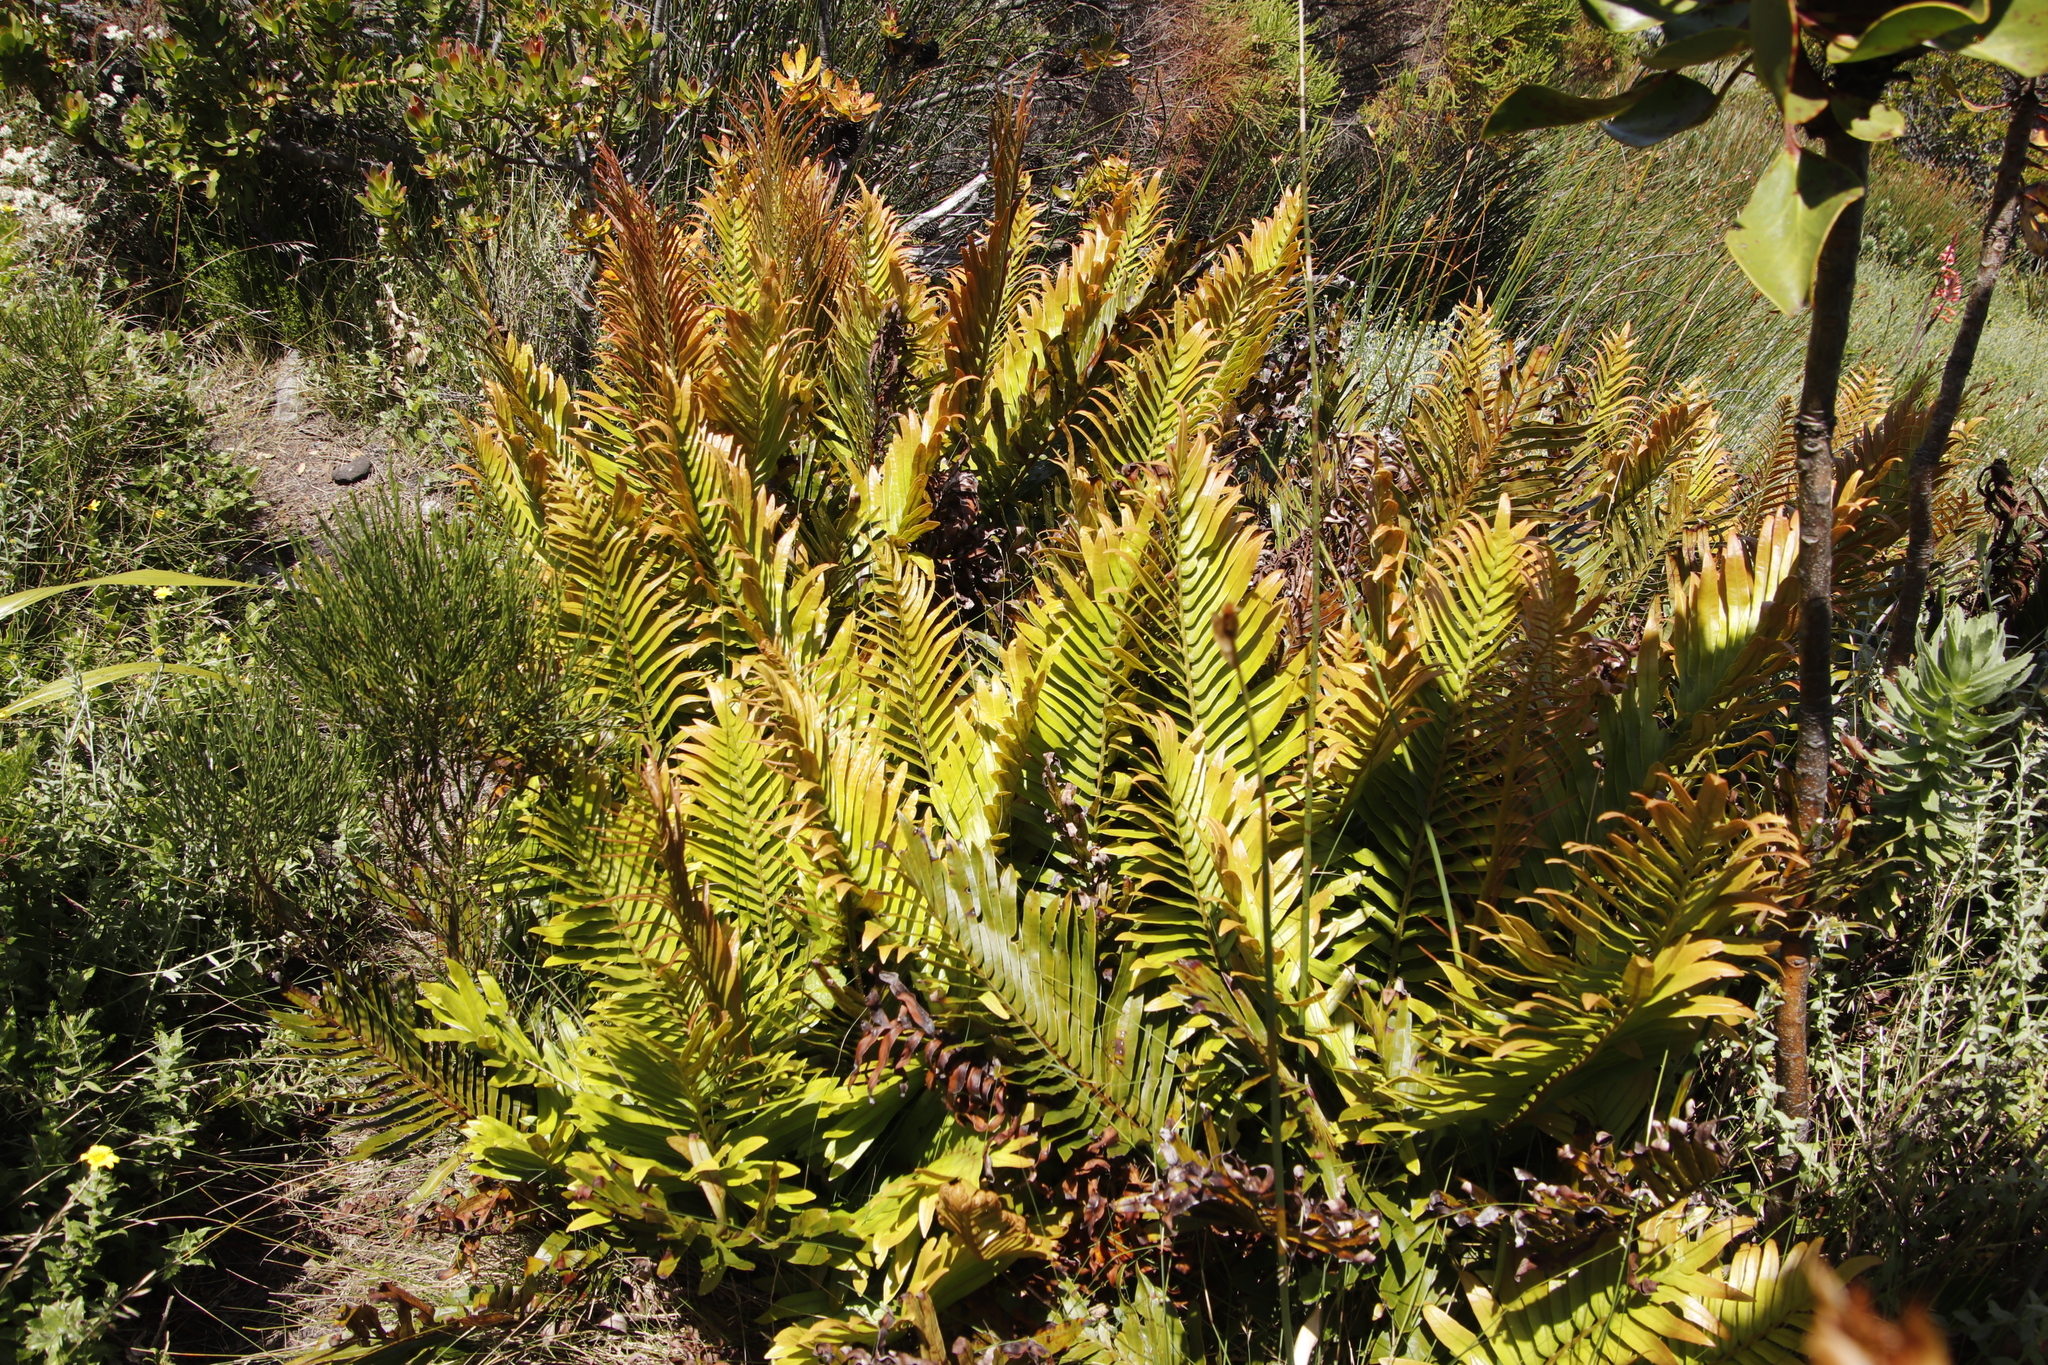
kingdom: Plantae
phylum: Tracheophyta
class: Polypodiopsida
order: Polypodiales
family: Blechnaceae
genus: Lomariocycas
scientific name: Lomariocycas tabularis
